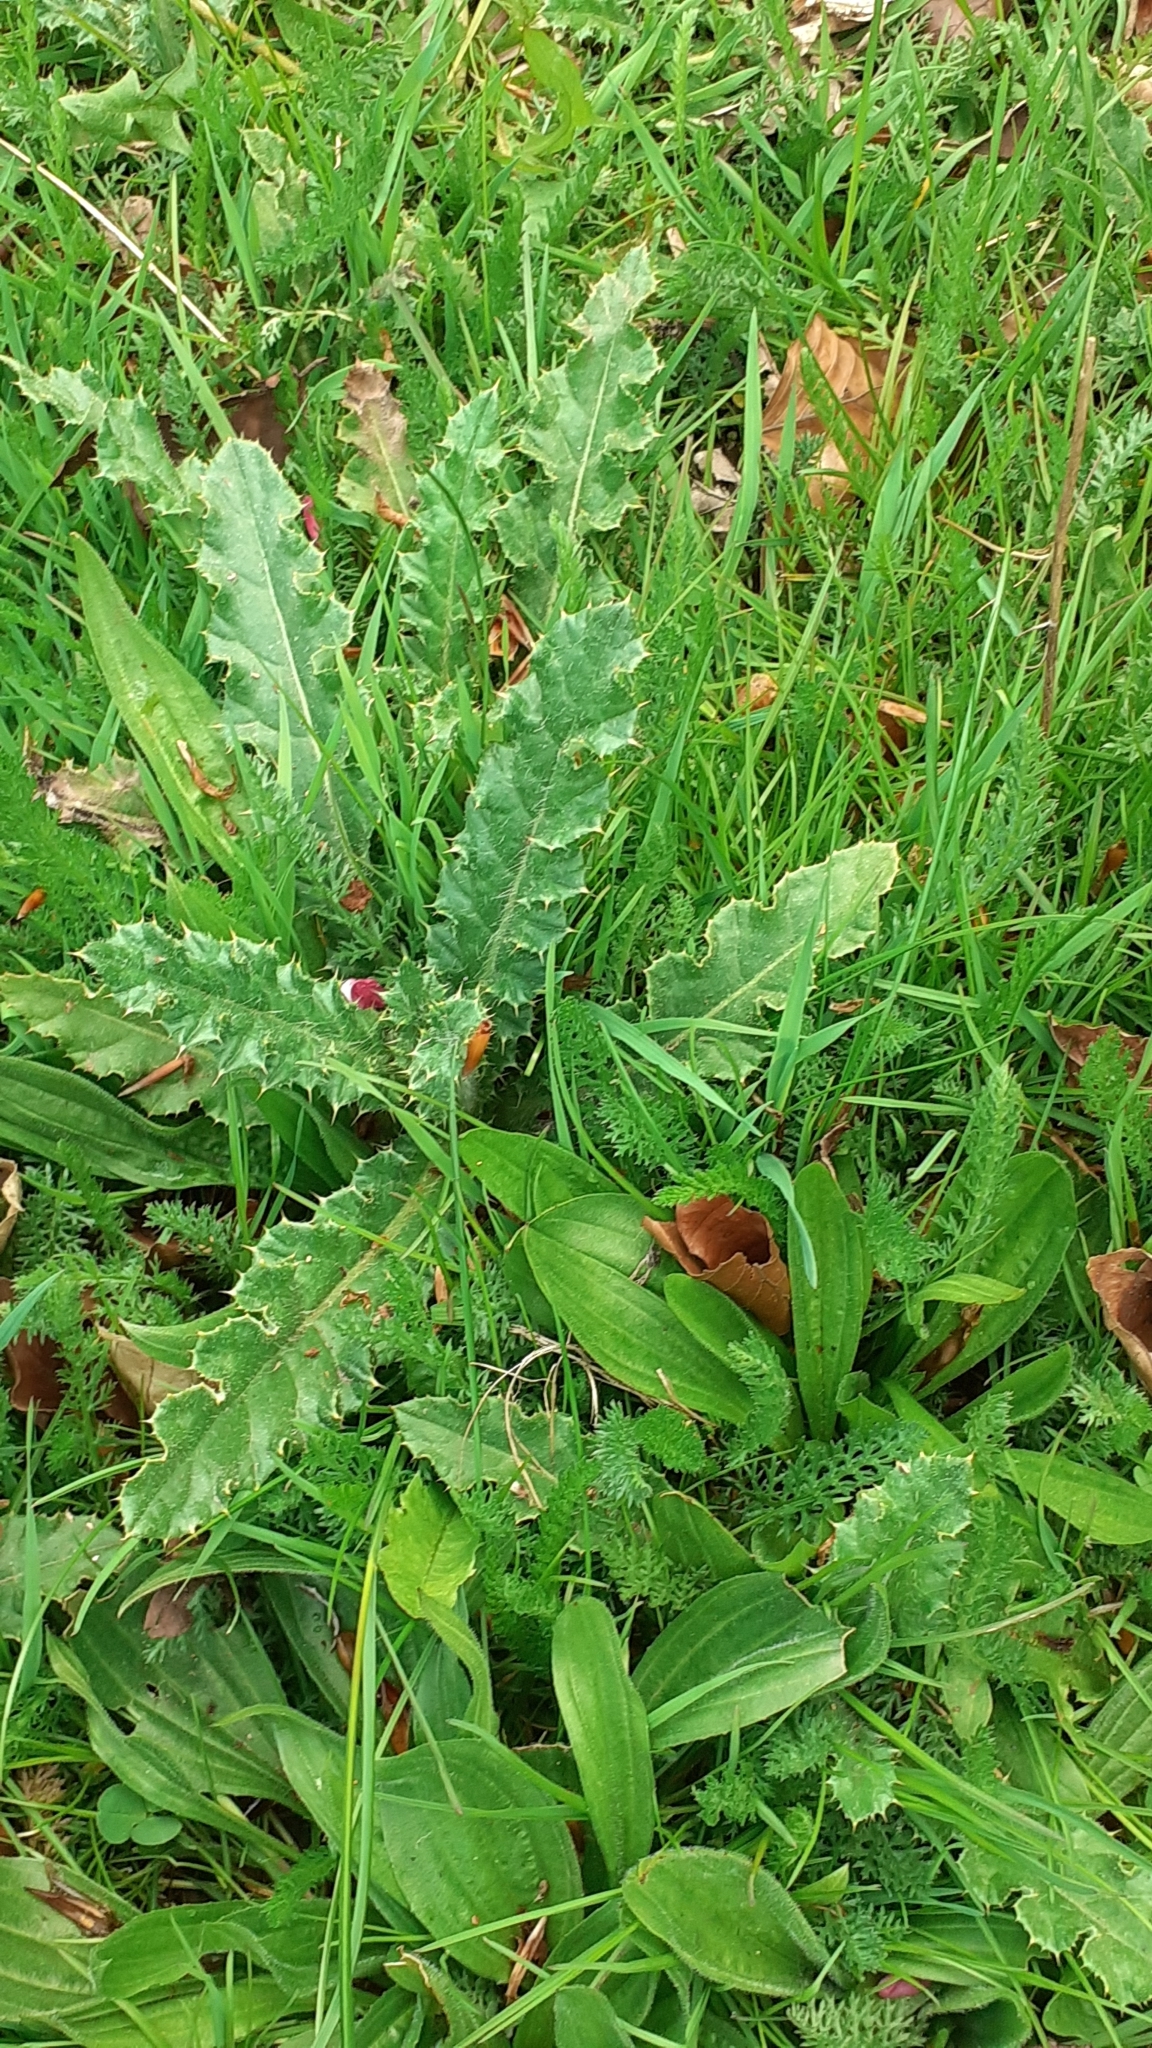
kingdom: Plantae
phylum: Tracheophyta
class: Magnoliopsida
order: Asterales
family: Asteraceae
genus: Cirsium
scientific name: Cirsium arvense
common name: Creeping thistle
